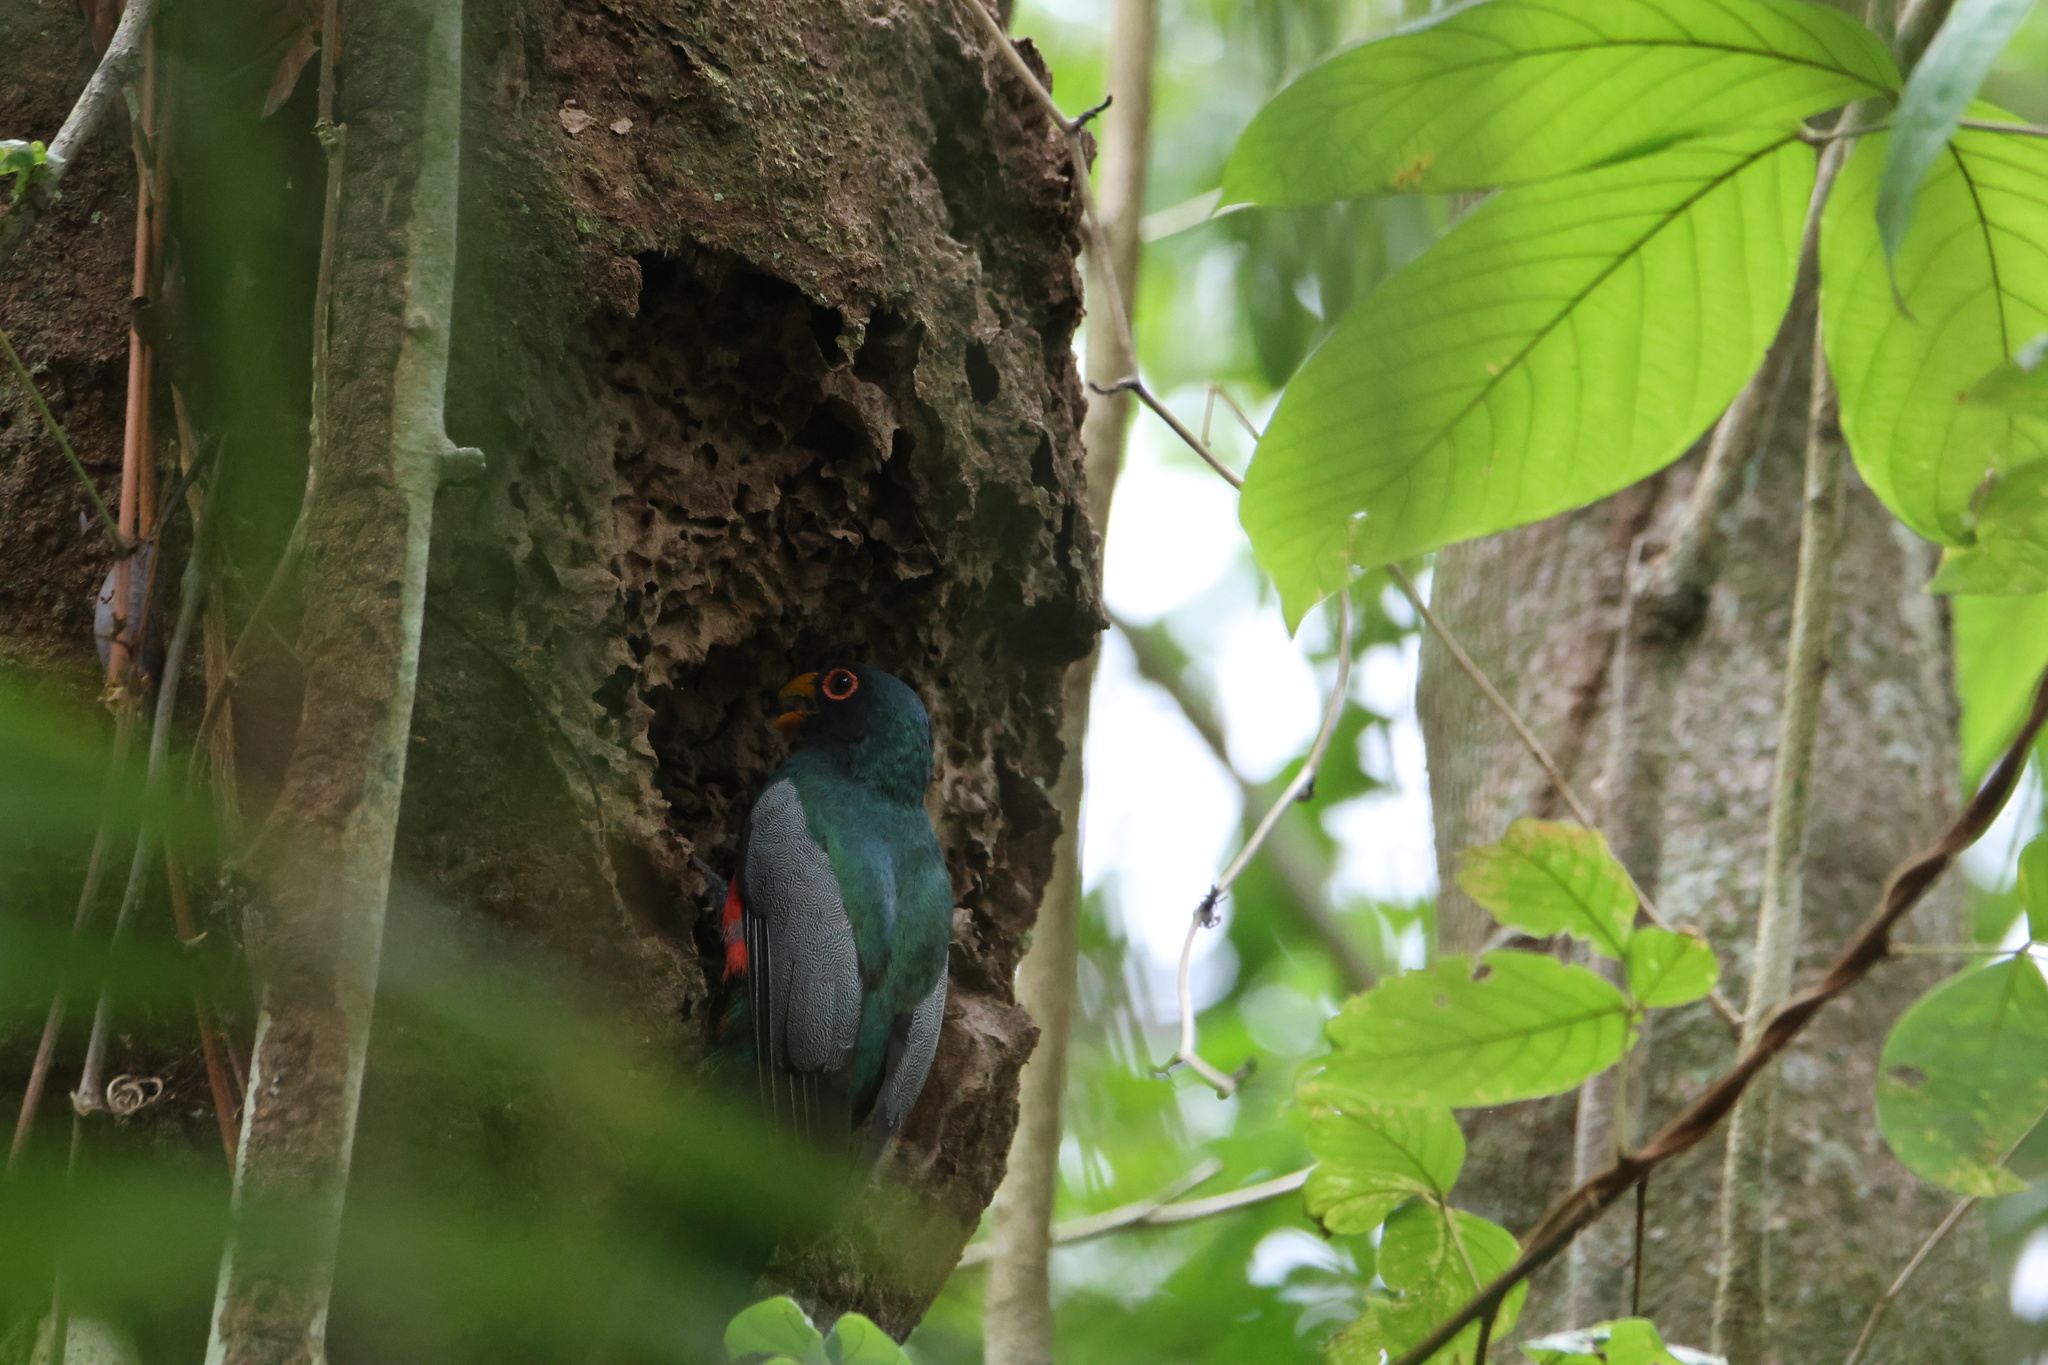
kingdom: Animalia
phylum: Chordata
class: Aves
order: Trogoniformes
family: Trogonidae
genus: Trogon
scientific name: Trogon melanurus
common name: Black-tailed trogon
